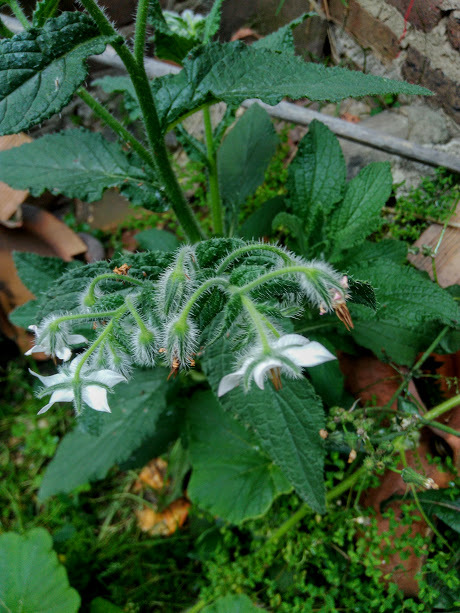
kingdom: Plantae
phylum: Tracheophyta
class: Magnoliopsida
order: Boraginales
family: Boraginaceae
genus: Borago
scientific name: Borago officinalis
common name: Borage
